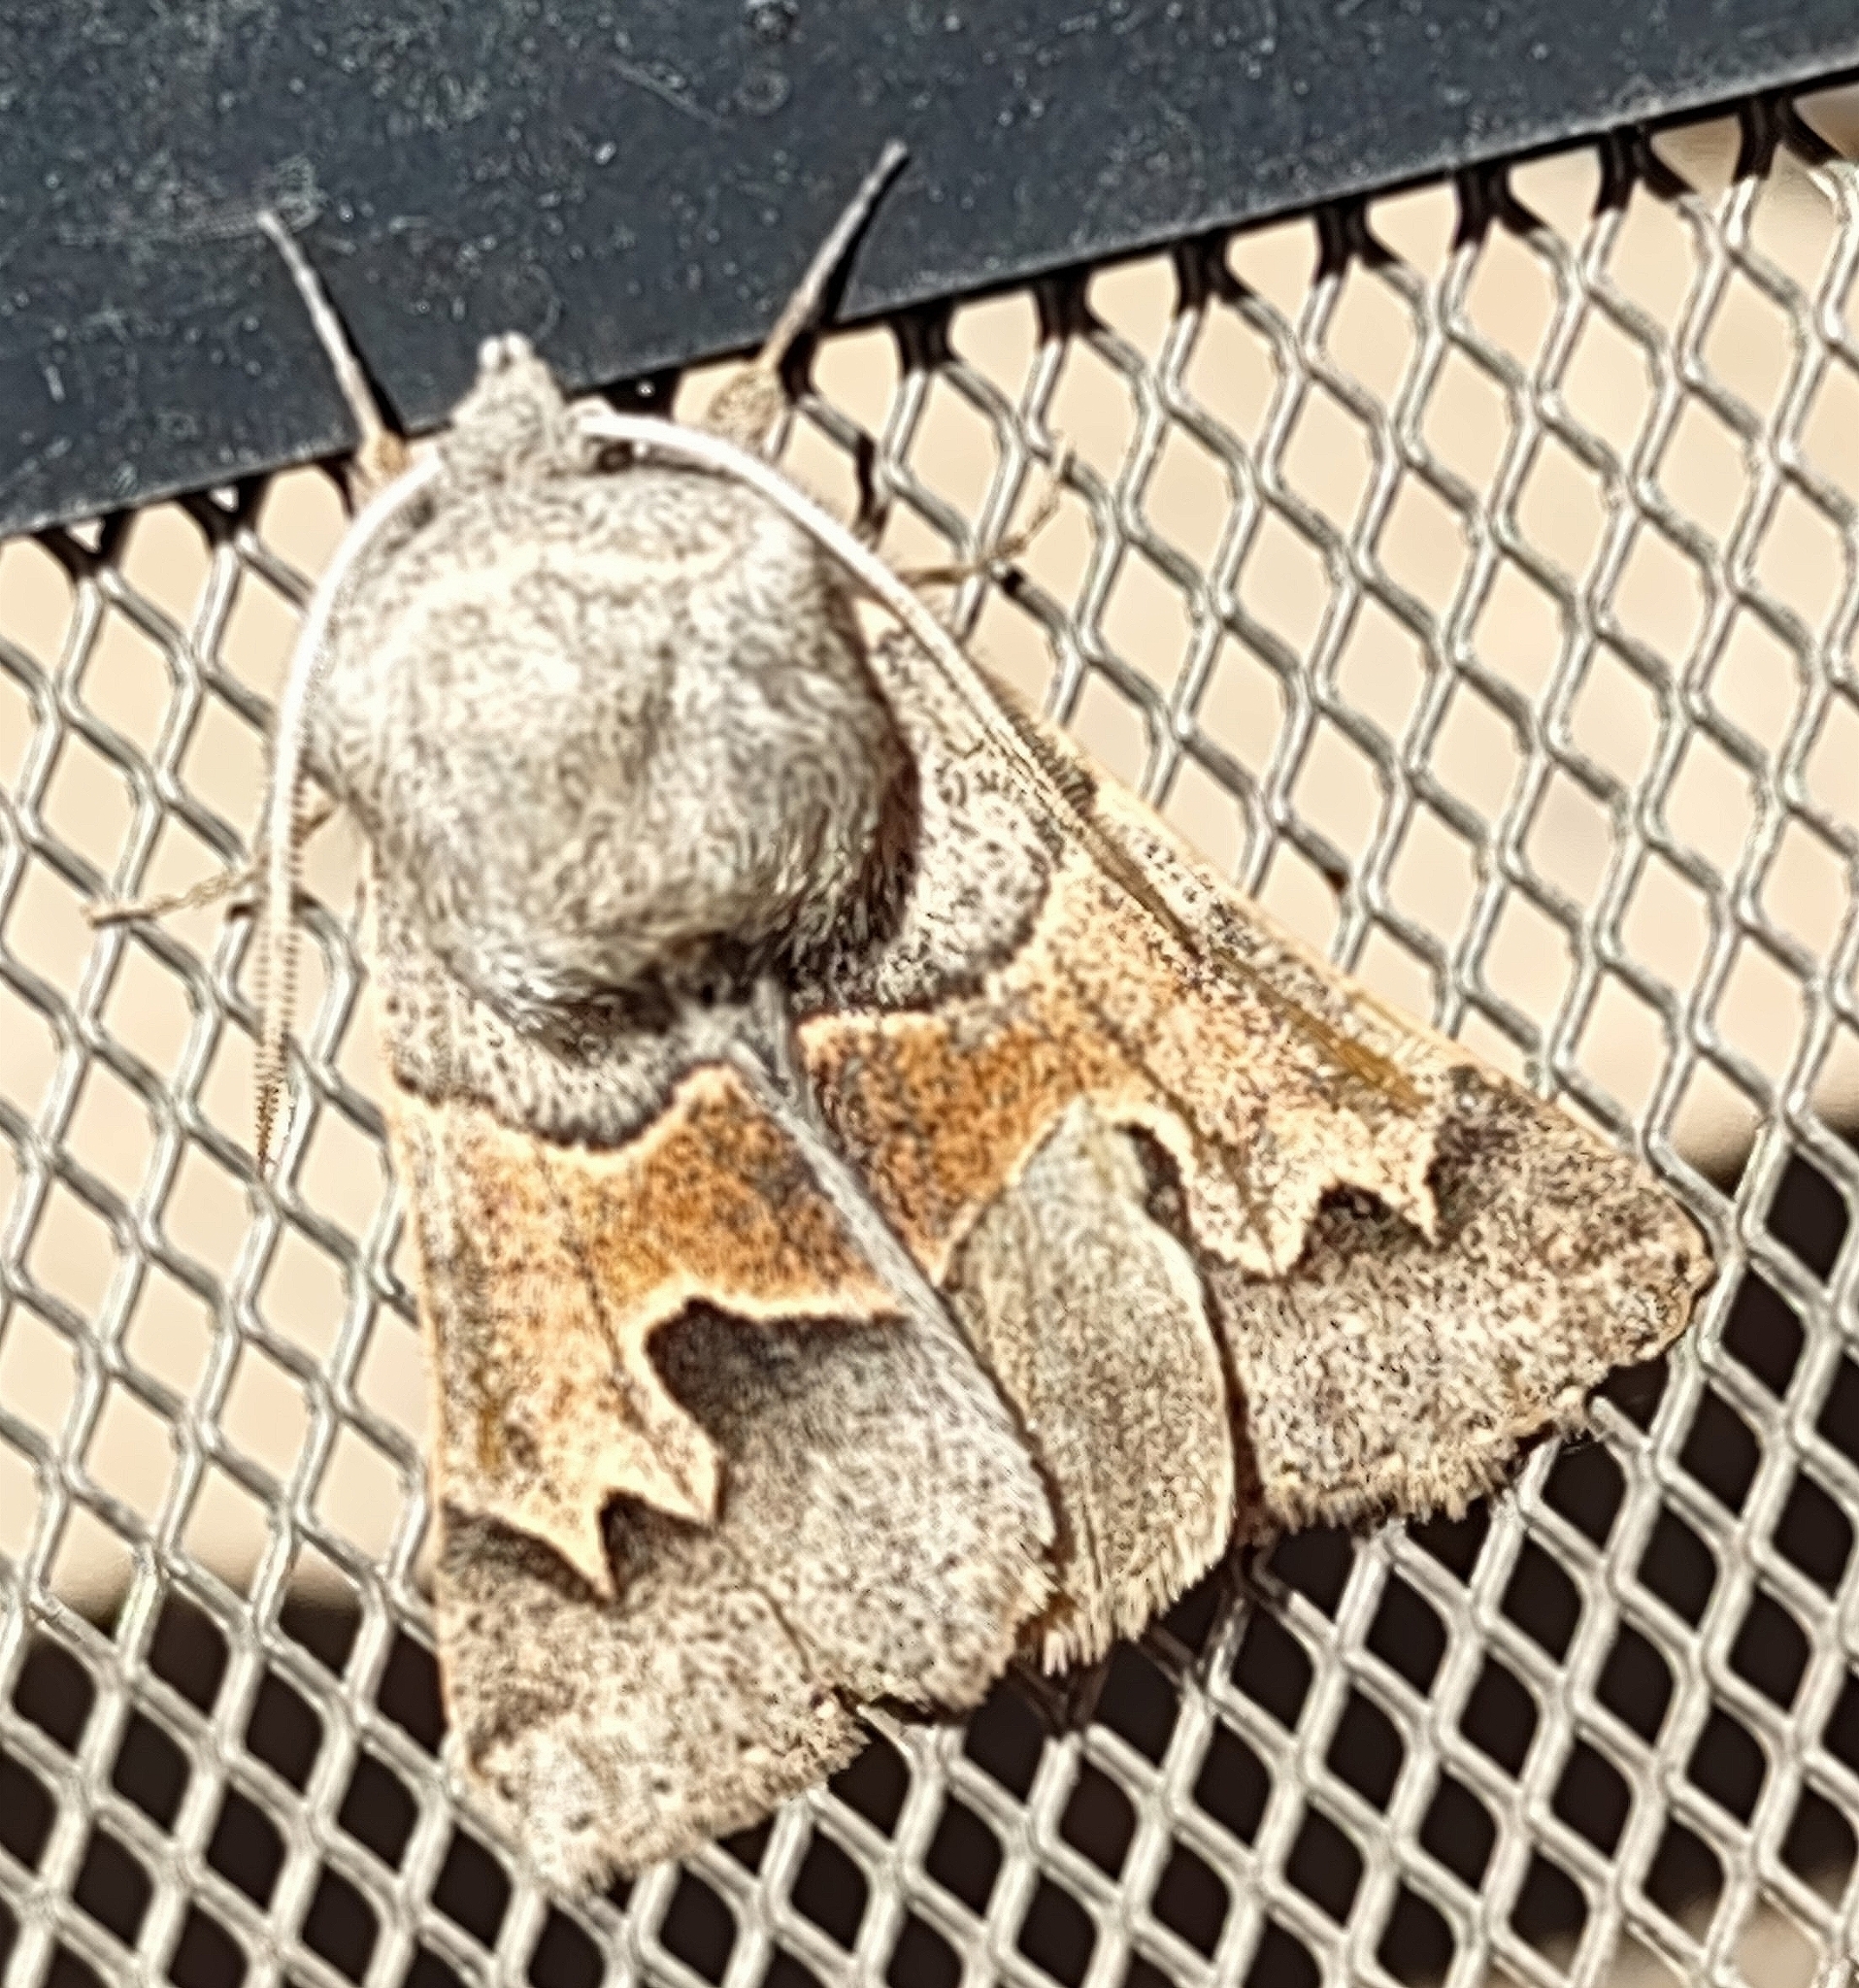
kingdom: Animalia
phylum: Arthropoda
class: Insecta
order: Lepidoptera
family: Erebidae
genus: Ulosyneda
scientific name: Ulosyneda valens
